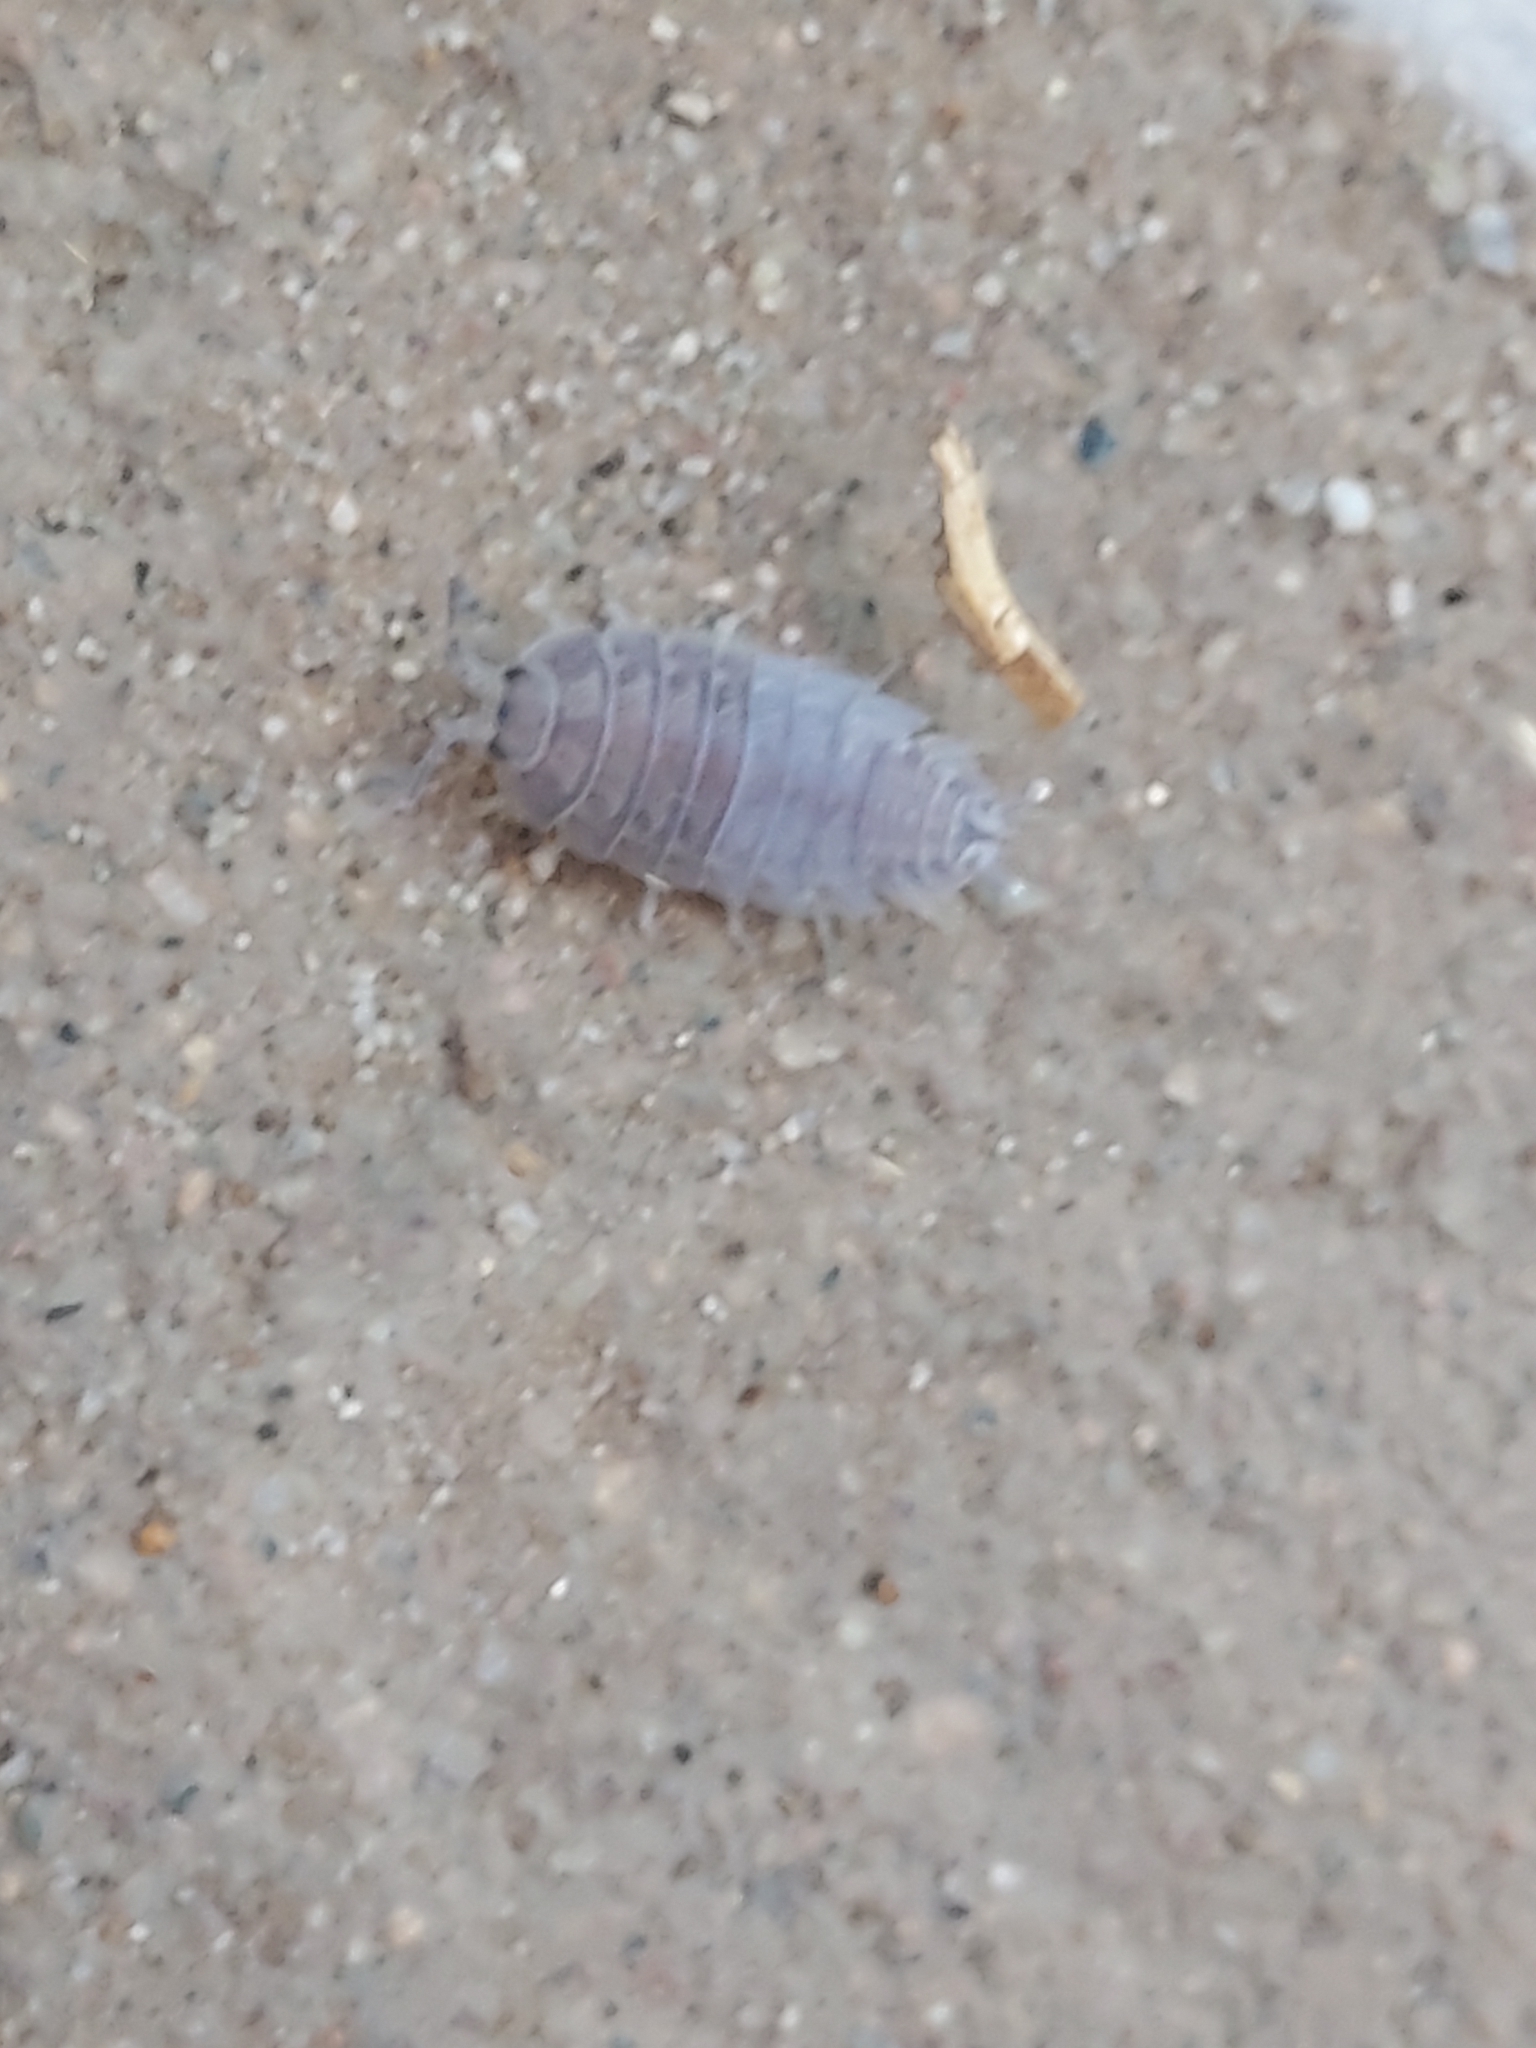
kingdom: Animalia
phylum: Arthropoda
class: Malacostraca
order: Isopoda
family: Porcellionidae
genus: Porcellio
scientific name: Porcellio laevis
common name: Swift woodlouse
